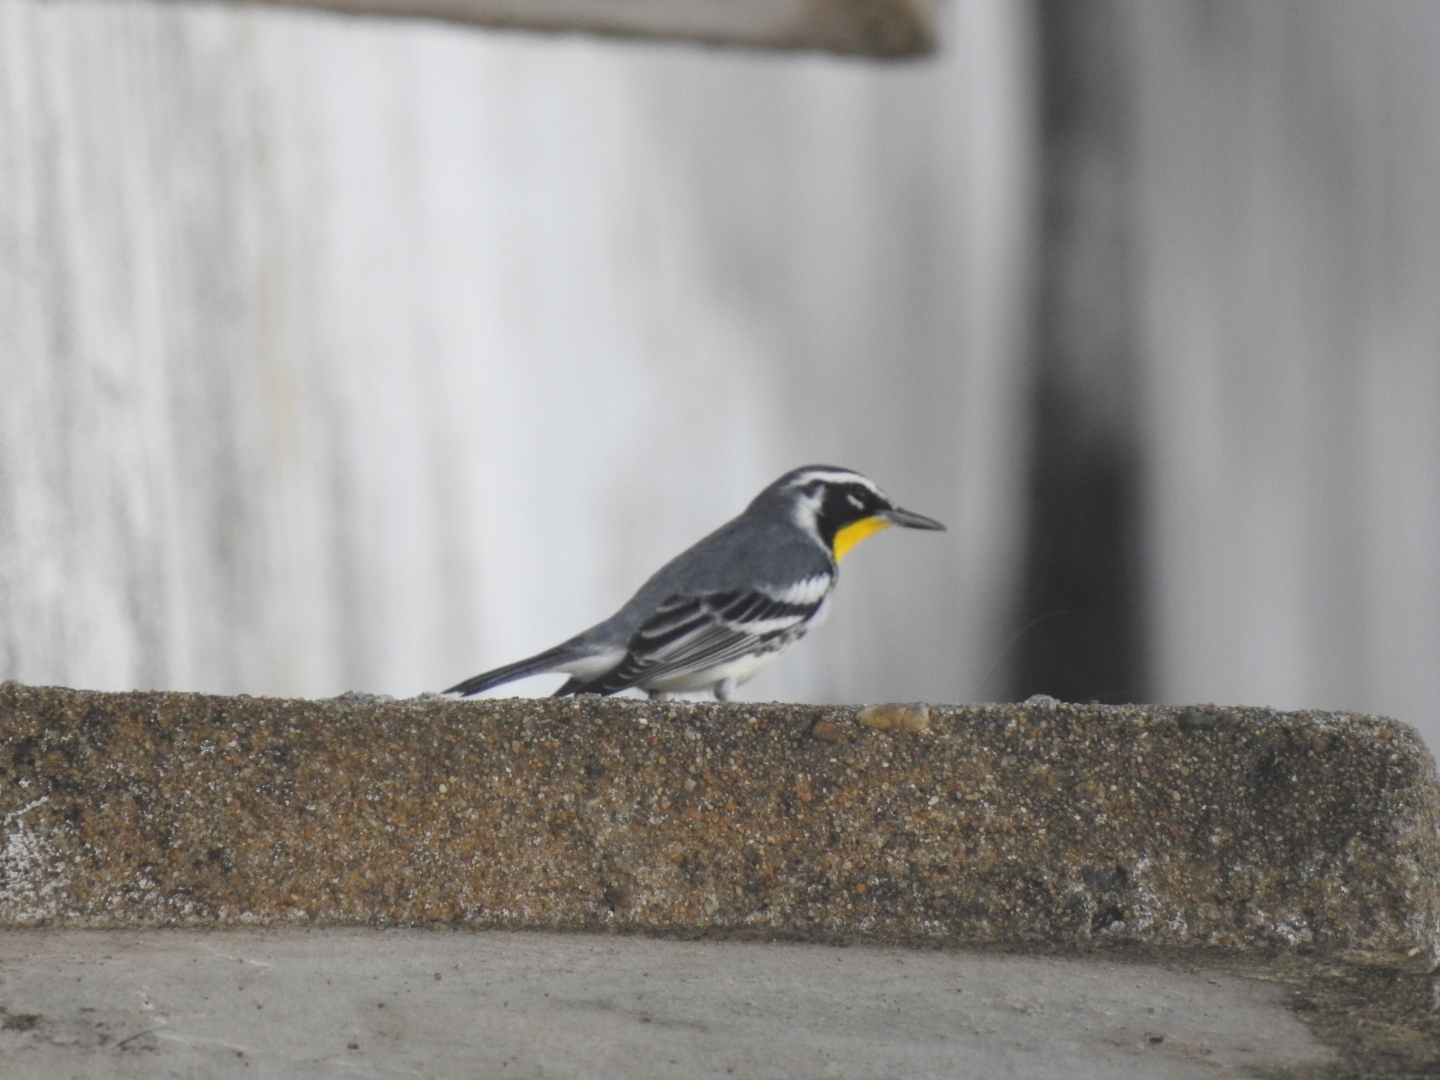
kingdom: Animalia
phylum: Chordata
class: Aves
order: Passeriformes
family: Parulidae
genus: Setophaga
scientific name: Setophaga dominica
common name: Yellow-throated warbler
